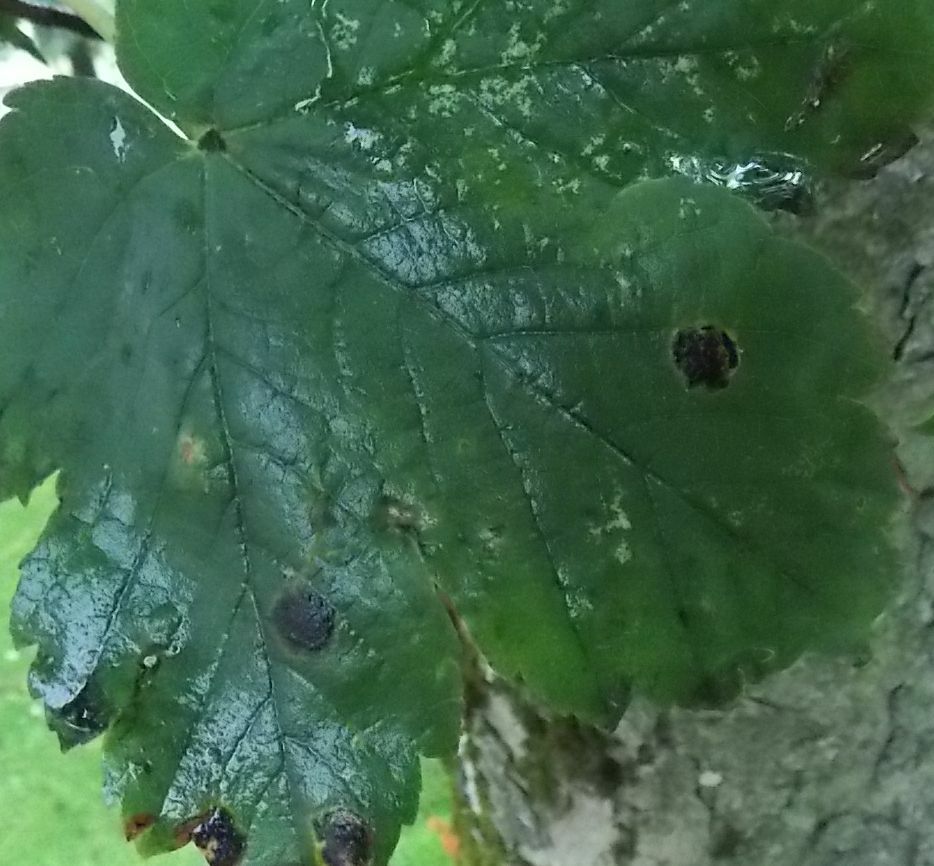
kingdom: Fungi
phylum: Ascomycota
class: Leotiomycetes
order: Rhytismatales
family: Rhytismataceae
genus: Rhytisma
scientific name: Rhytisma acerinum
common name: European tar spot
